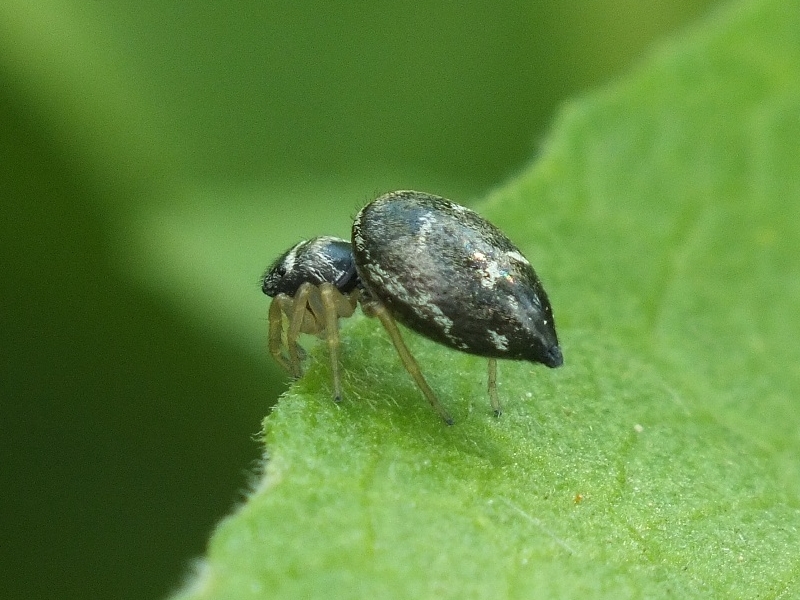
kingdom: Animalia
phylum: Arthropoda
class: Arachnida
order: Araneae
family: Salticidae
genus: Heliophanus
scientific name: Heliophanus cupreus
